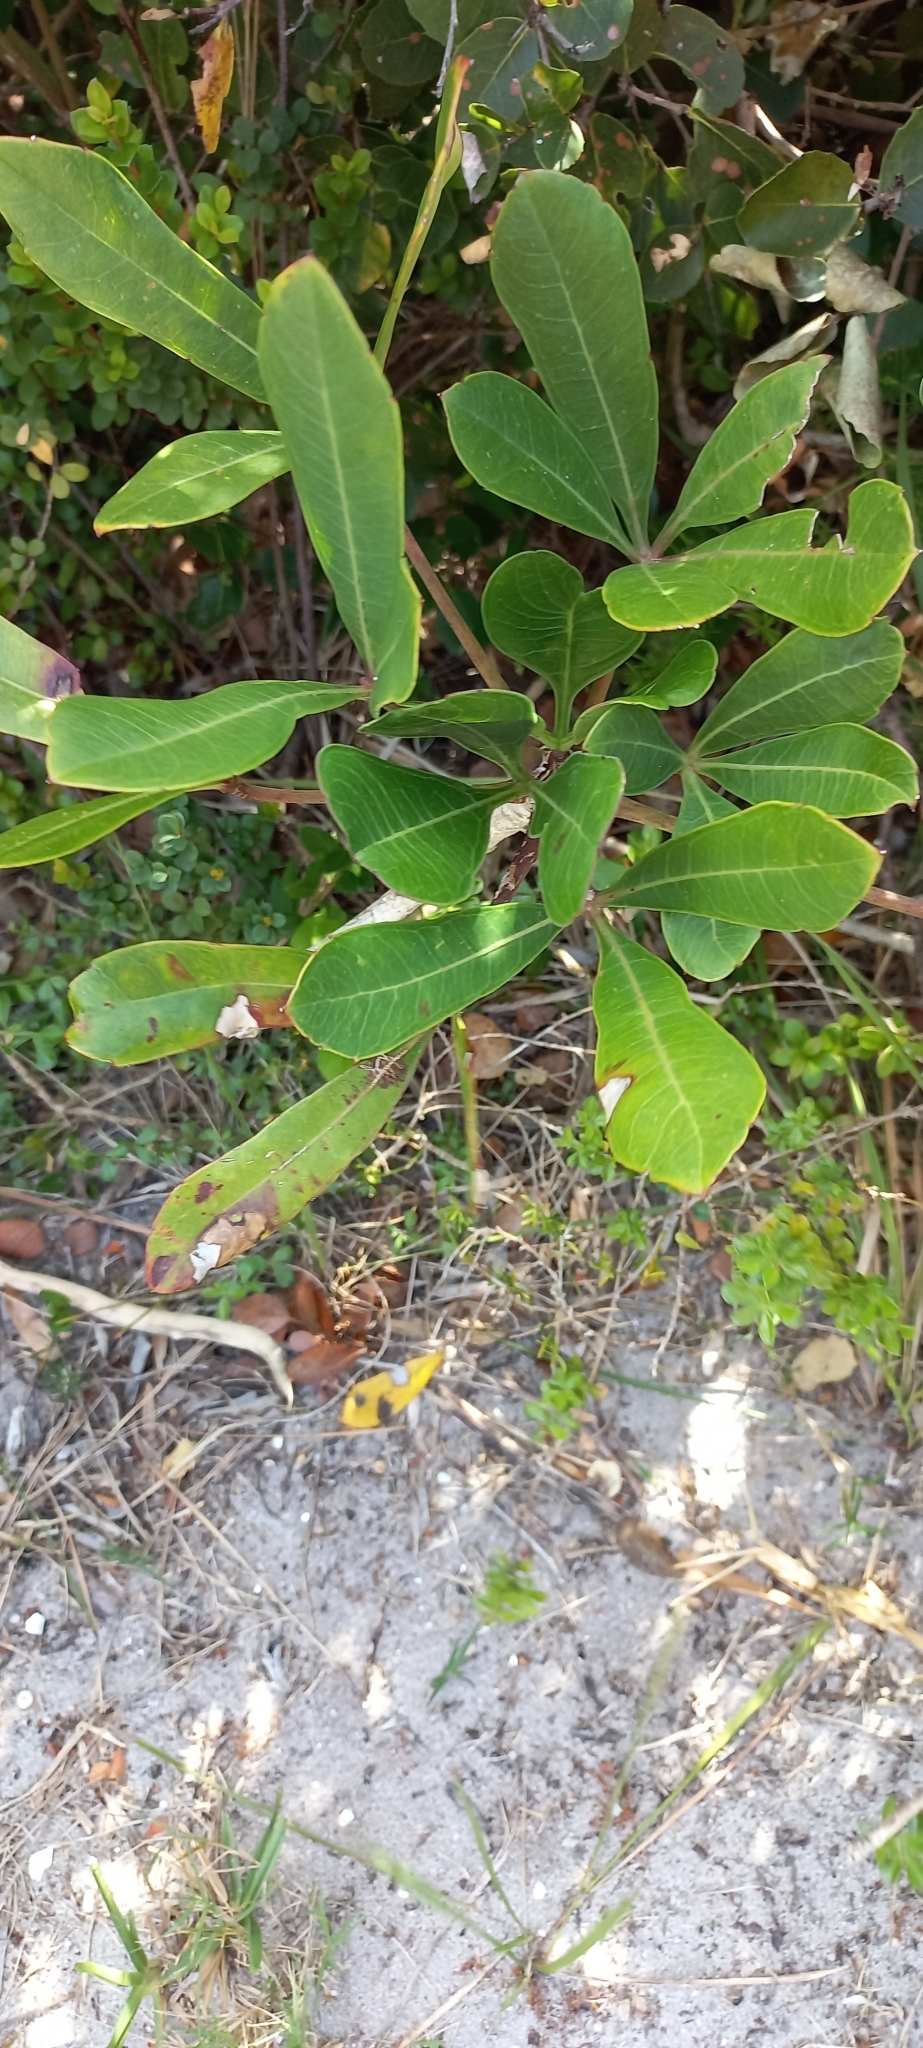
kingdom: Plantae
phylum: Tracheophyta
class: Magnoliopsida
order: Apiales
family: Araliaceae
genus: Cussonia
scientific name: Cussonia thyrsiflora
